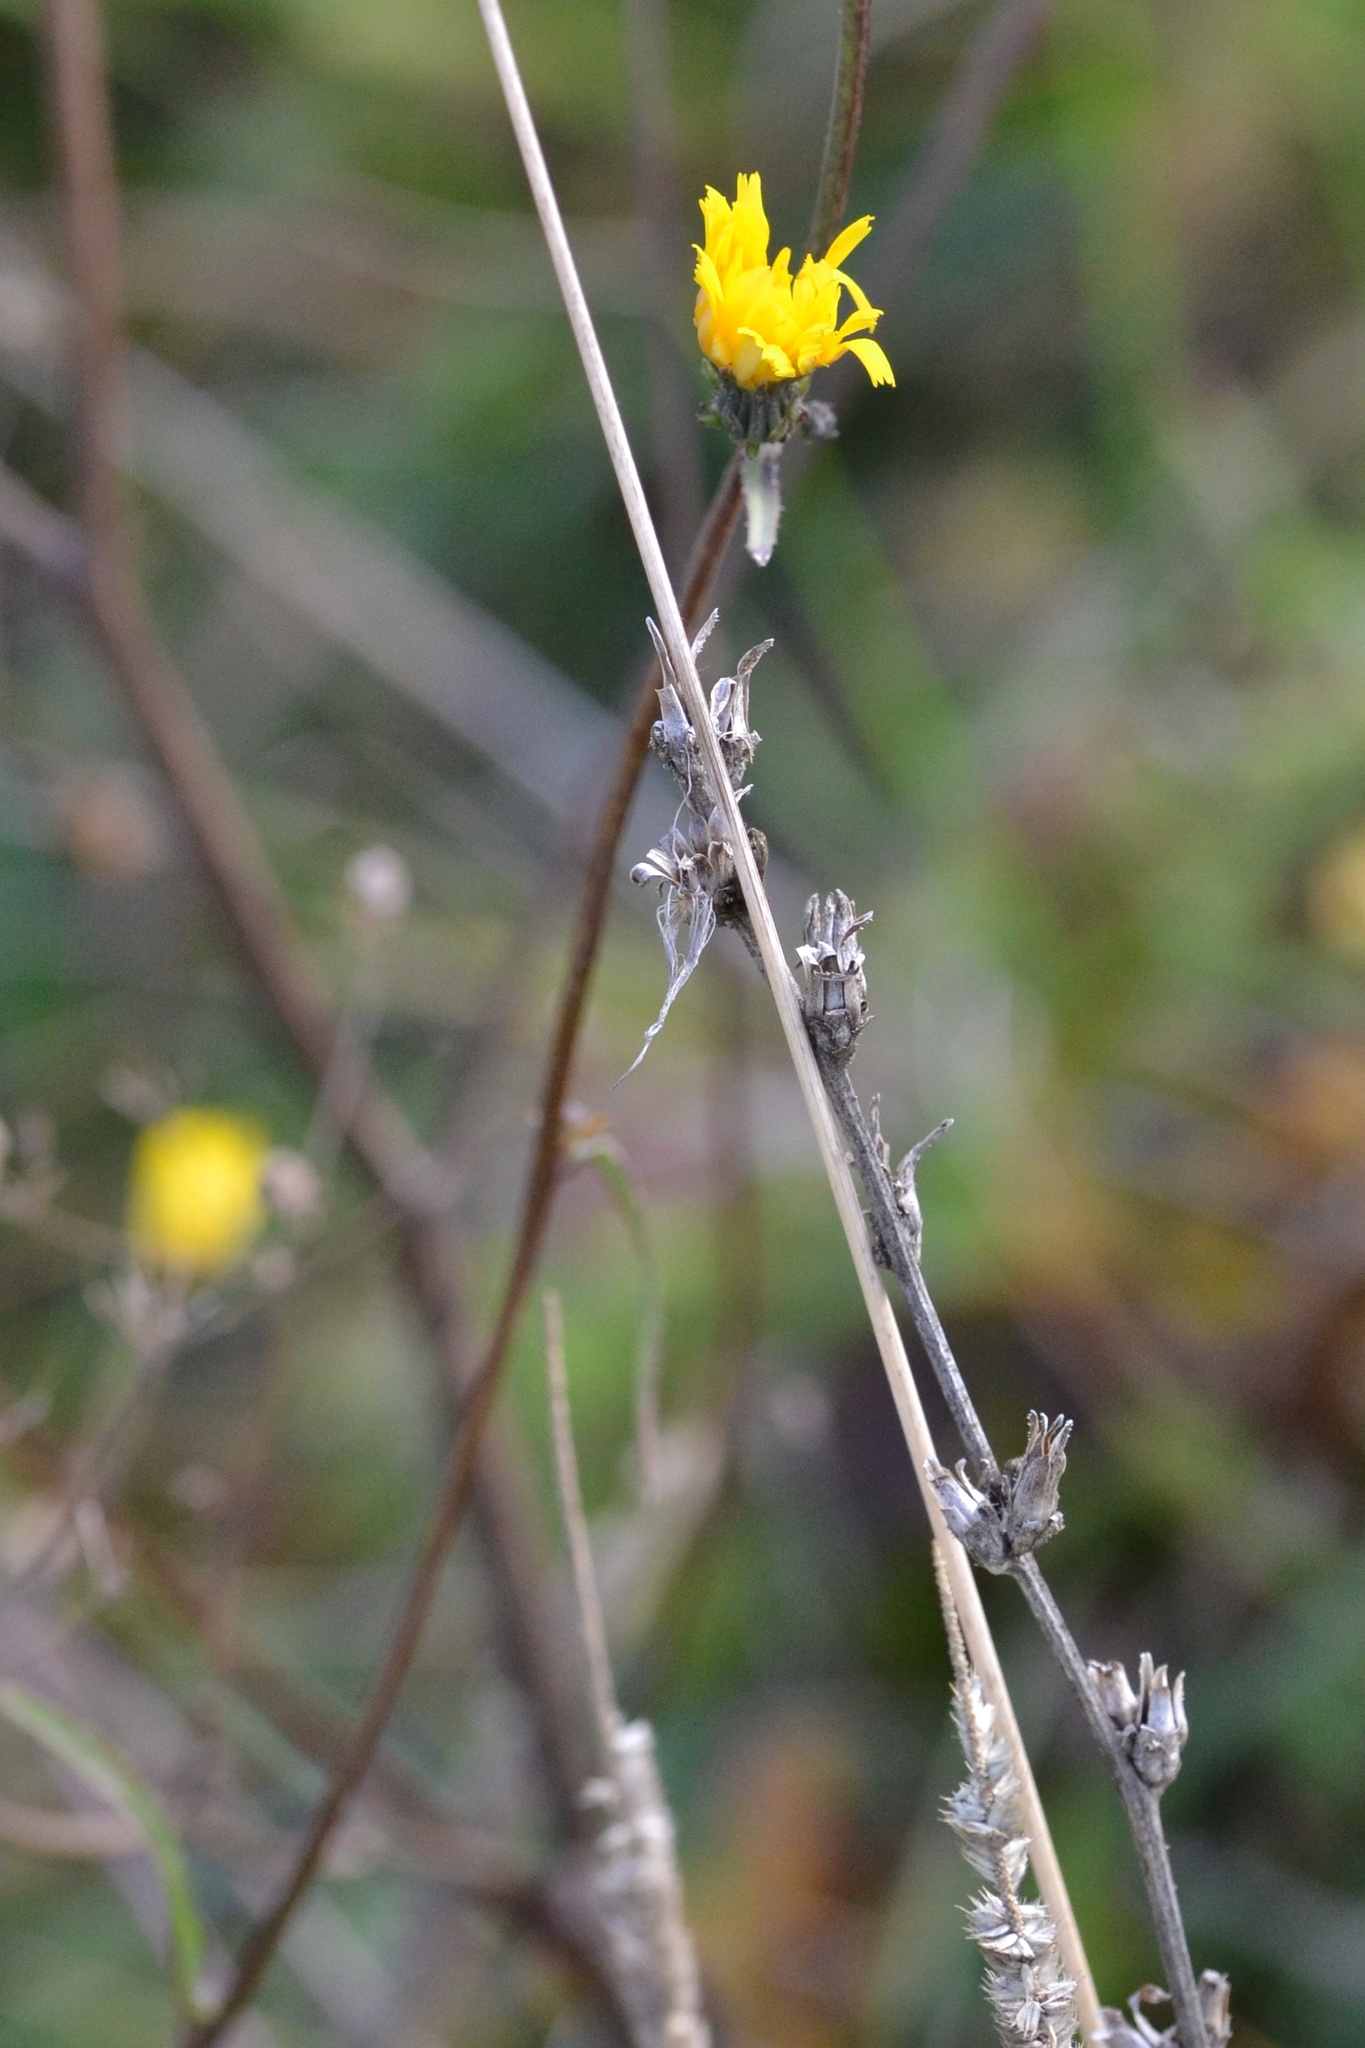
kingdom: Plantae
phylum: Tracheophyta
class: Magnoliopsida
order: Asterales
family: Asteraceae
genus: Picris
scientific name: Picris hieracioides
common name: Hawkweed oxtongue
